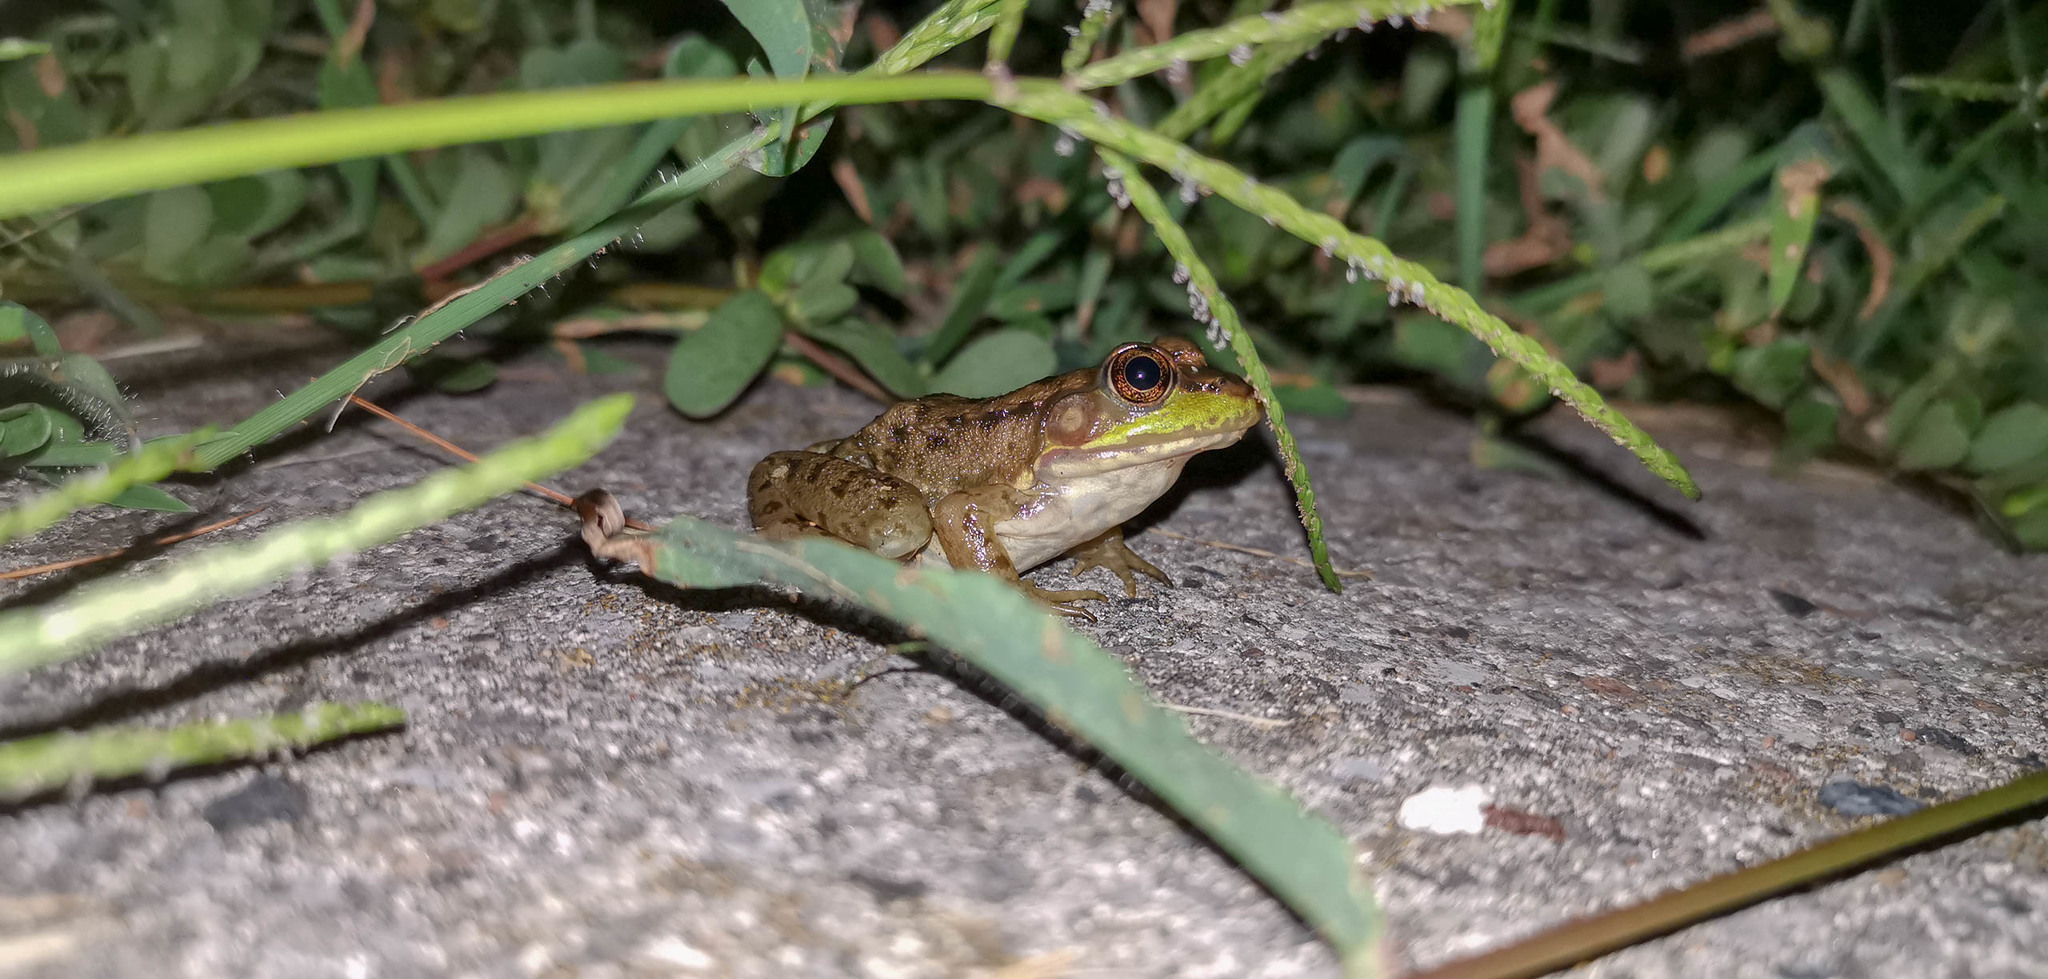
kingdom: Animalia
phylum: Chordata
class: Amphibia
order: Anura
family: Ranidae
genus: Lithobates
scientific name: Lithobates clamitans
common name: Green frog
